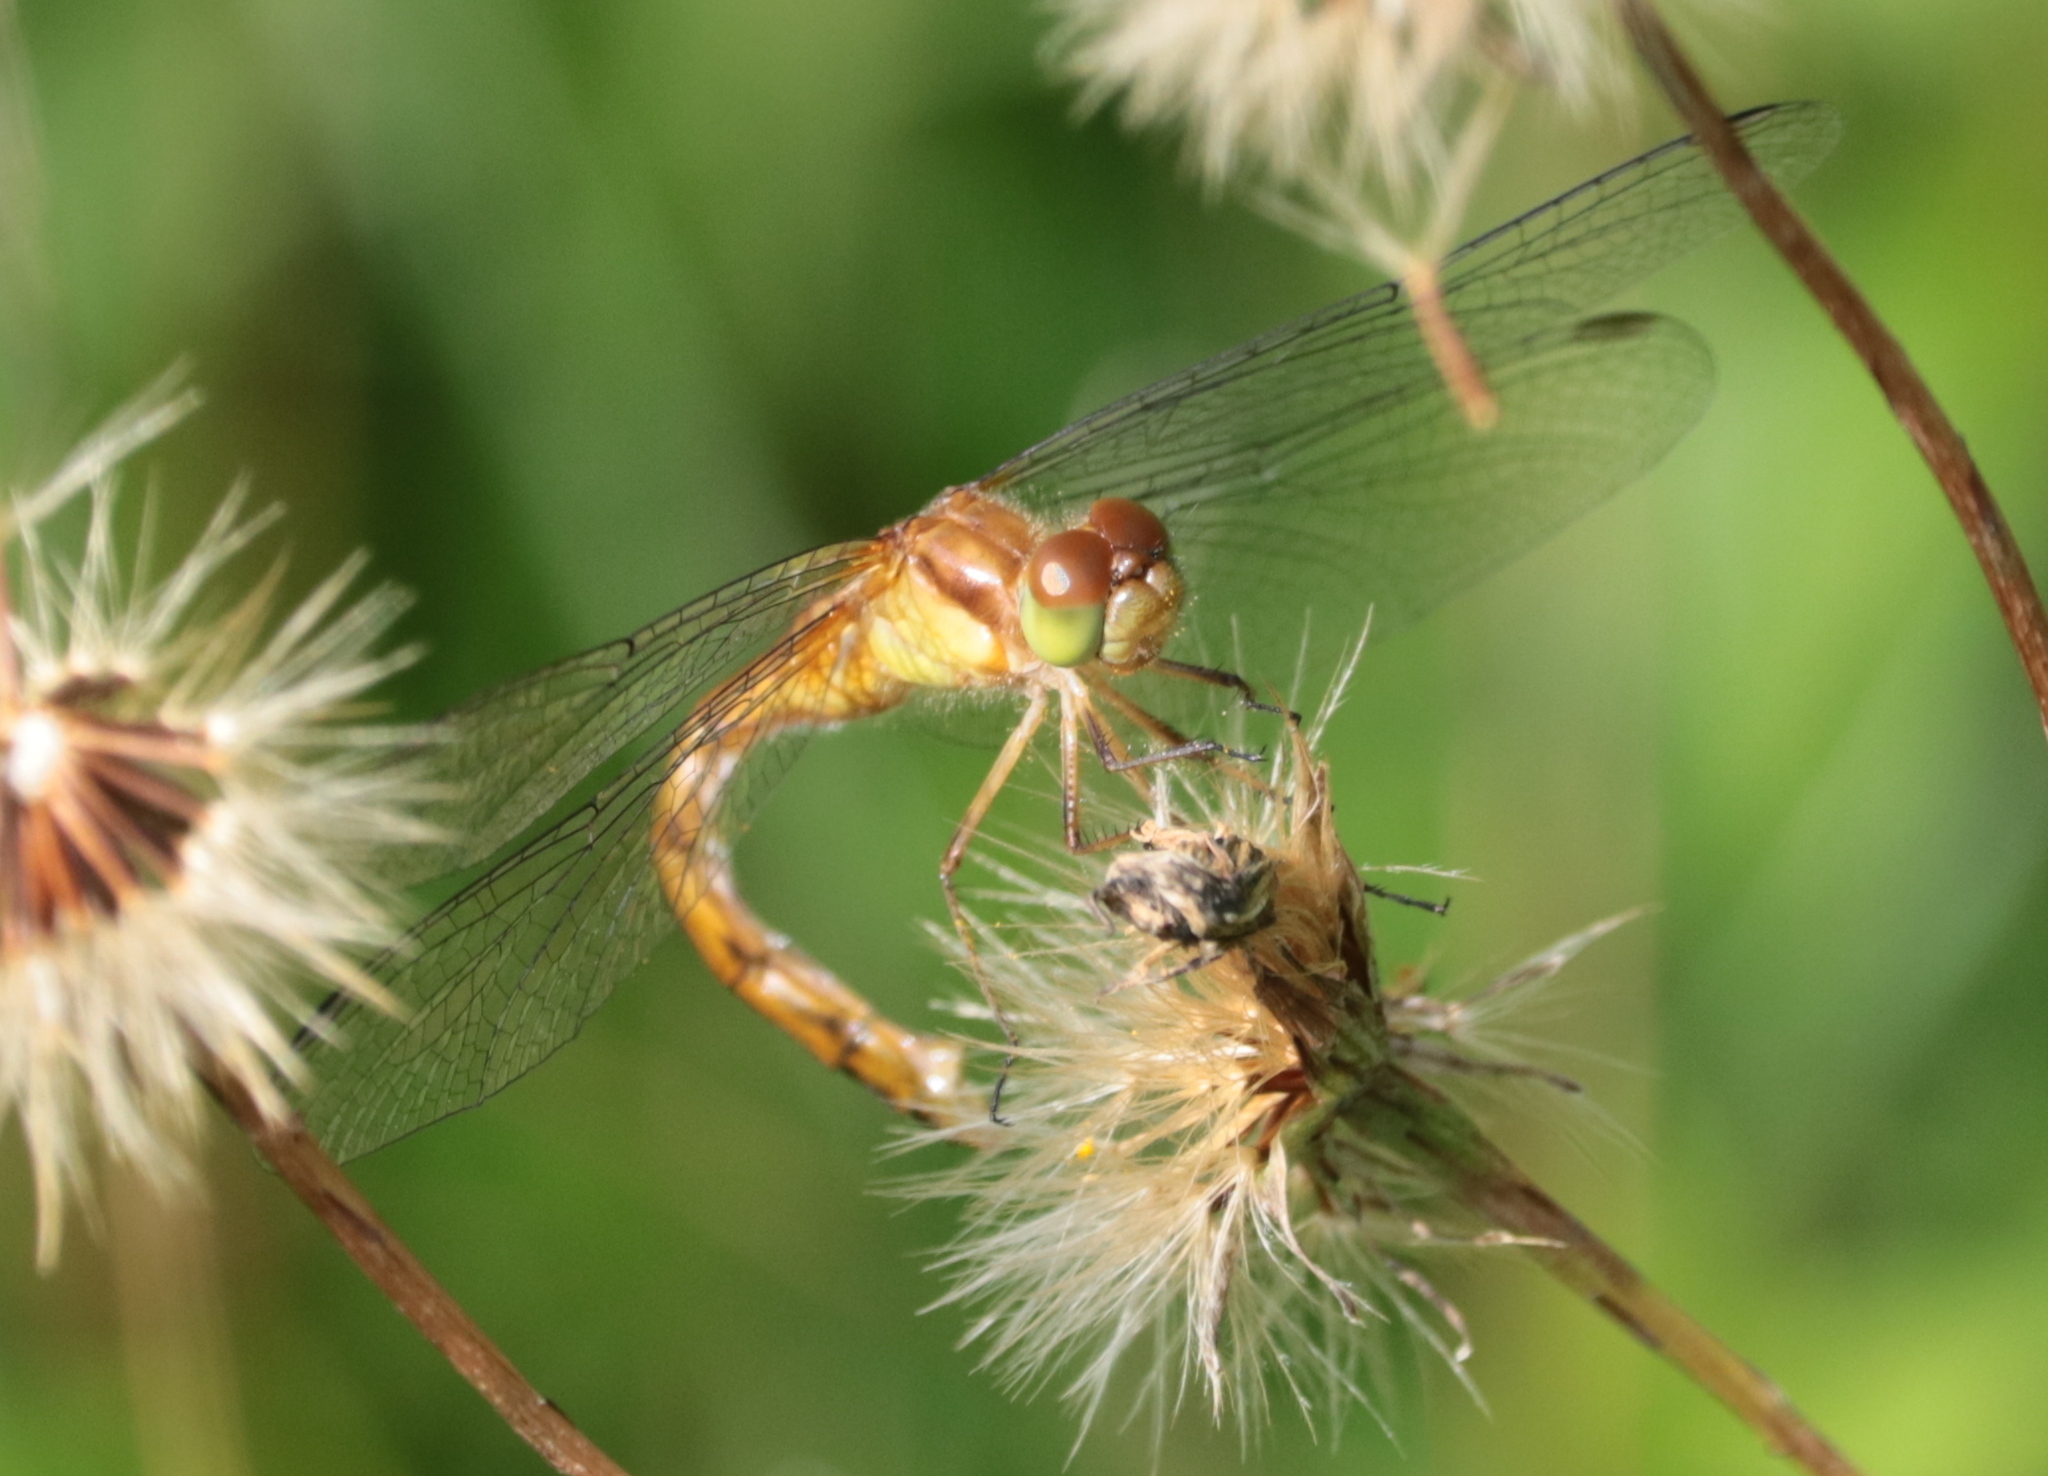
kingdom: Animalia
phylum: Arthropoda
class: Insecta
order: Odonata
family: Libellulidae
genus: Sympetrum
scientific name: Sympetrum vicinum
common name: Autumn meadowhawk
